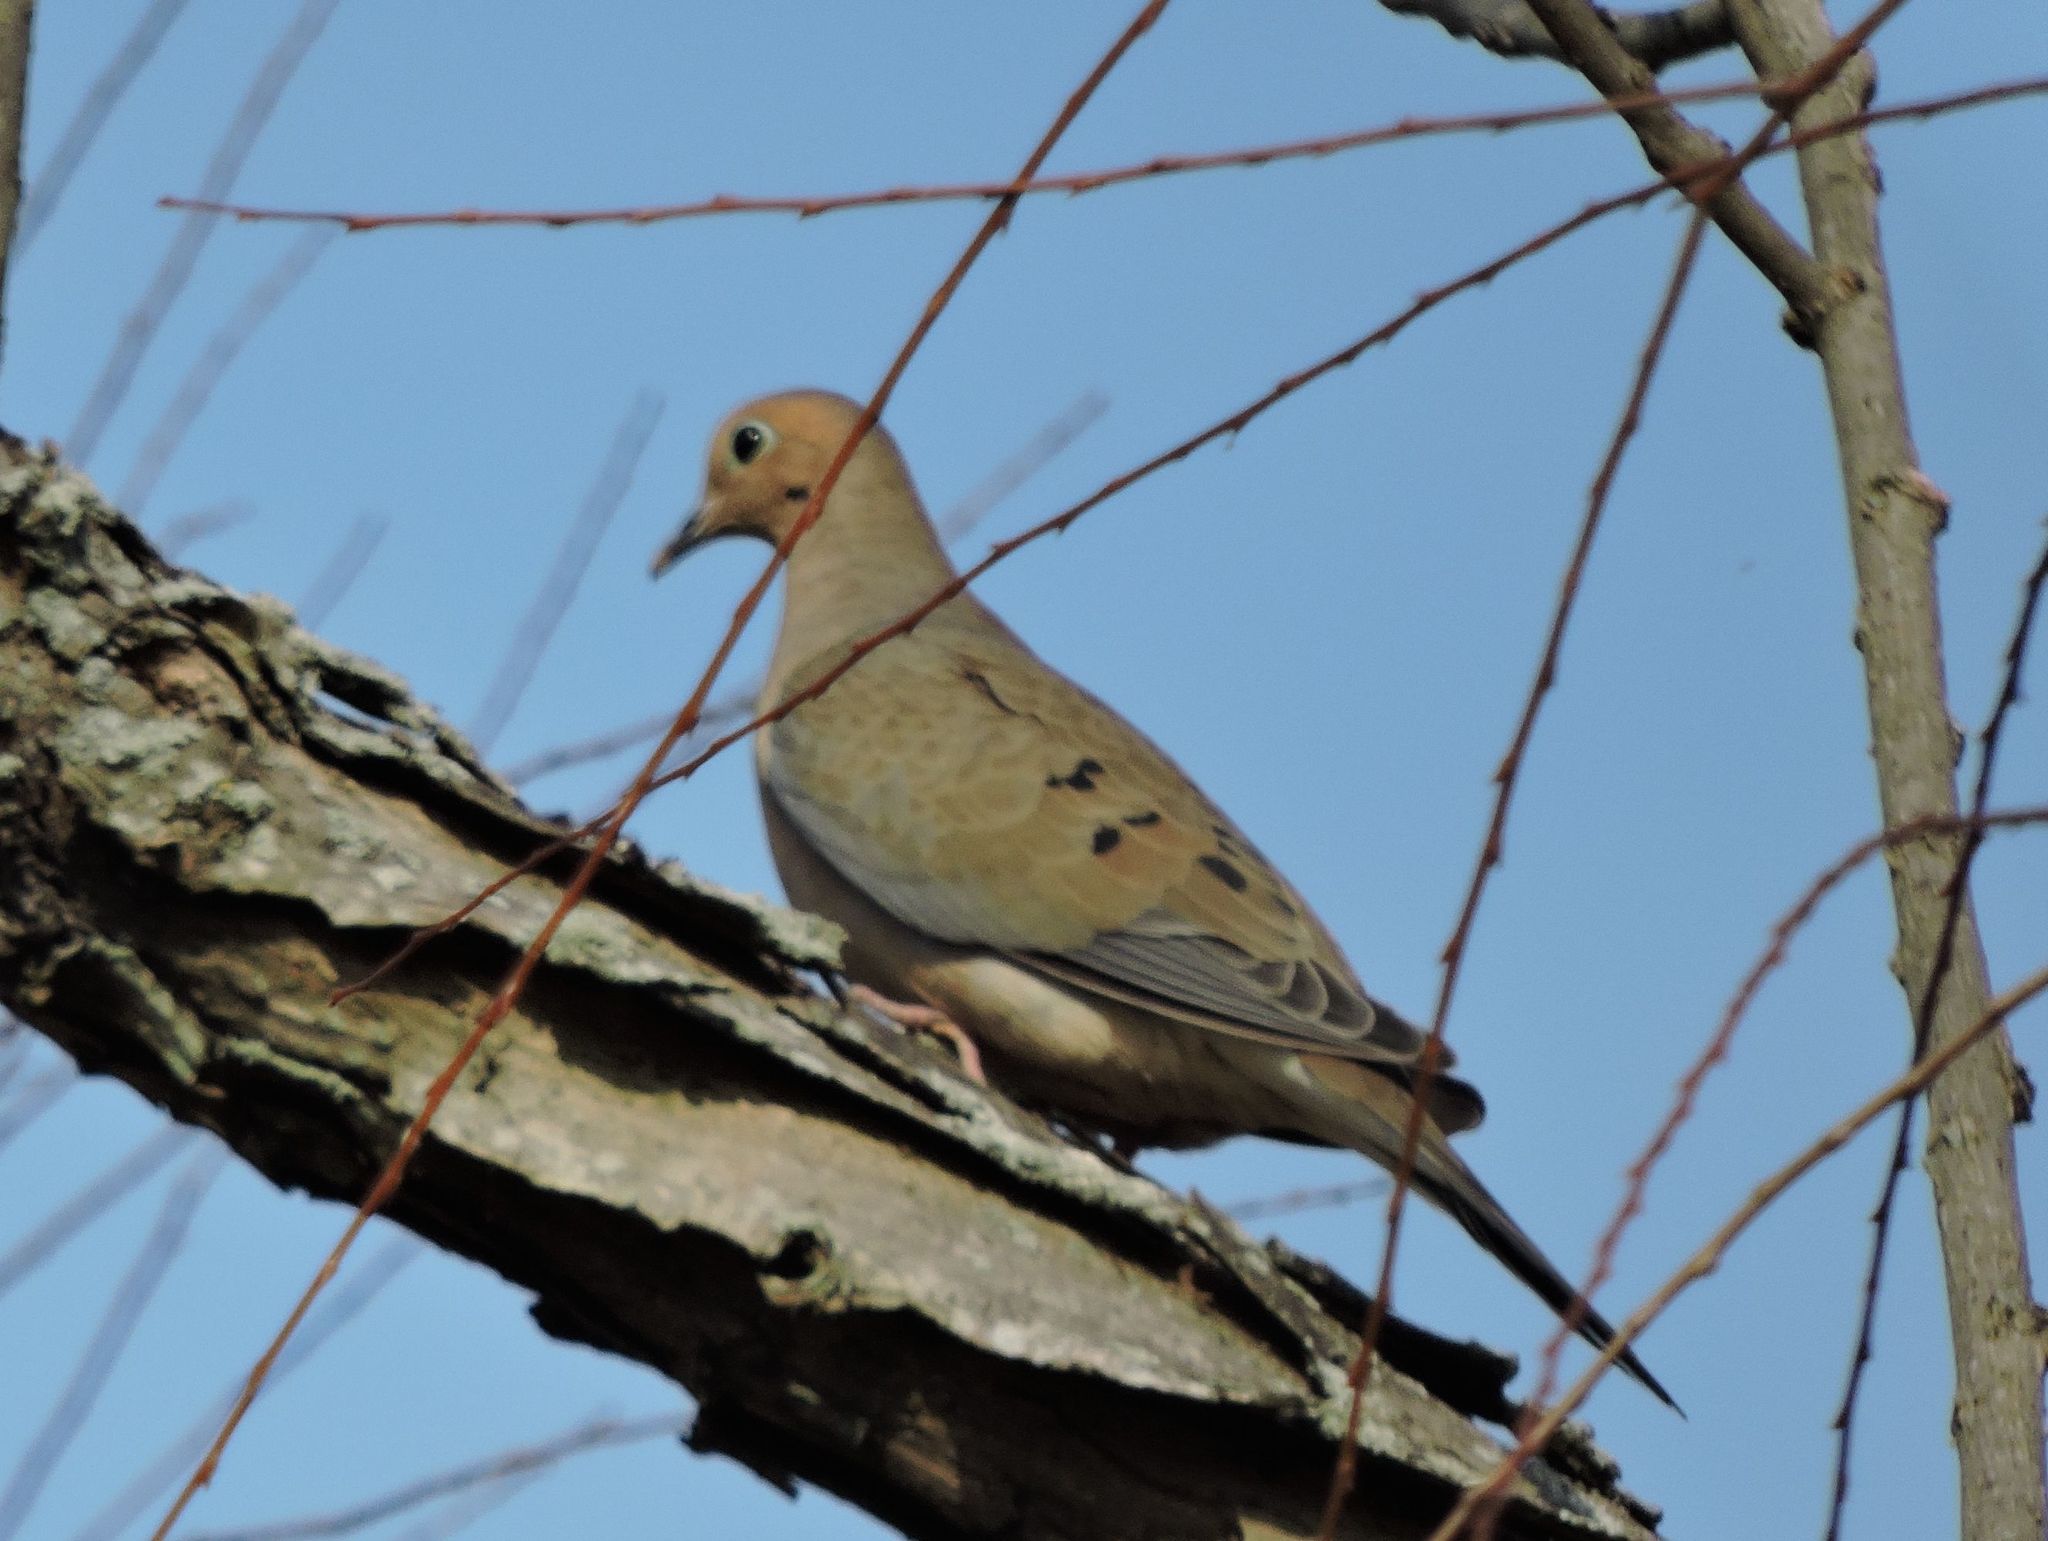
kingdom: Animalia
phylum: Chordata
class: Aves
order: Columbiformes
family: Columbidae
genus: Zenaida
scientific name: Zenaida macroura
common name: Mourning dove
